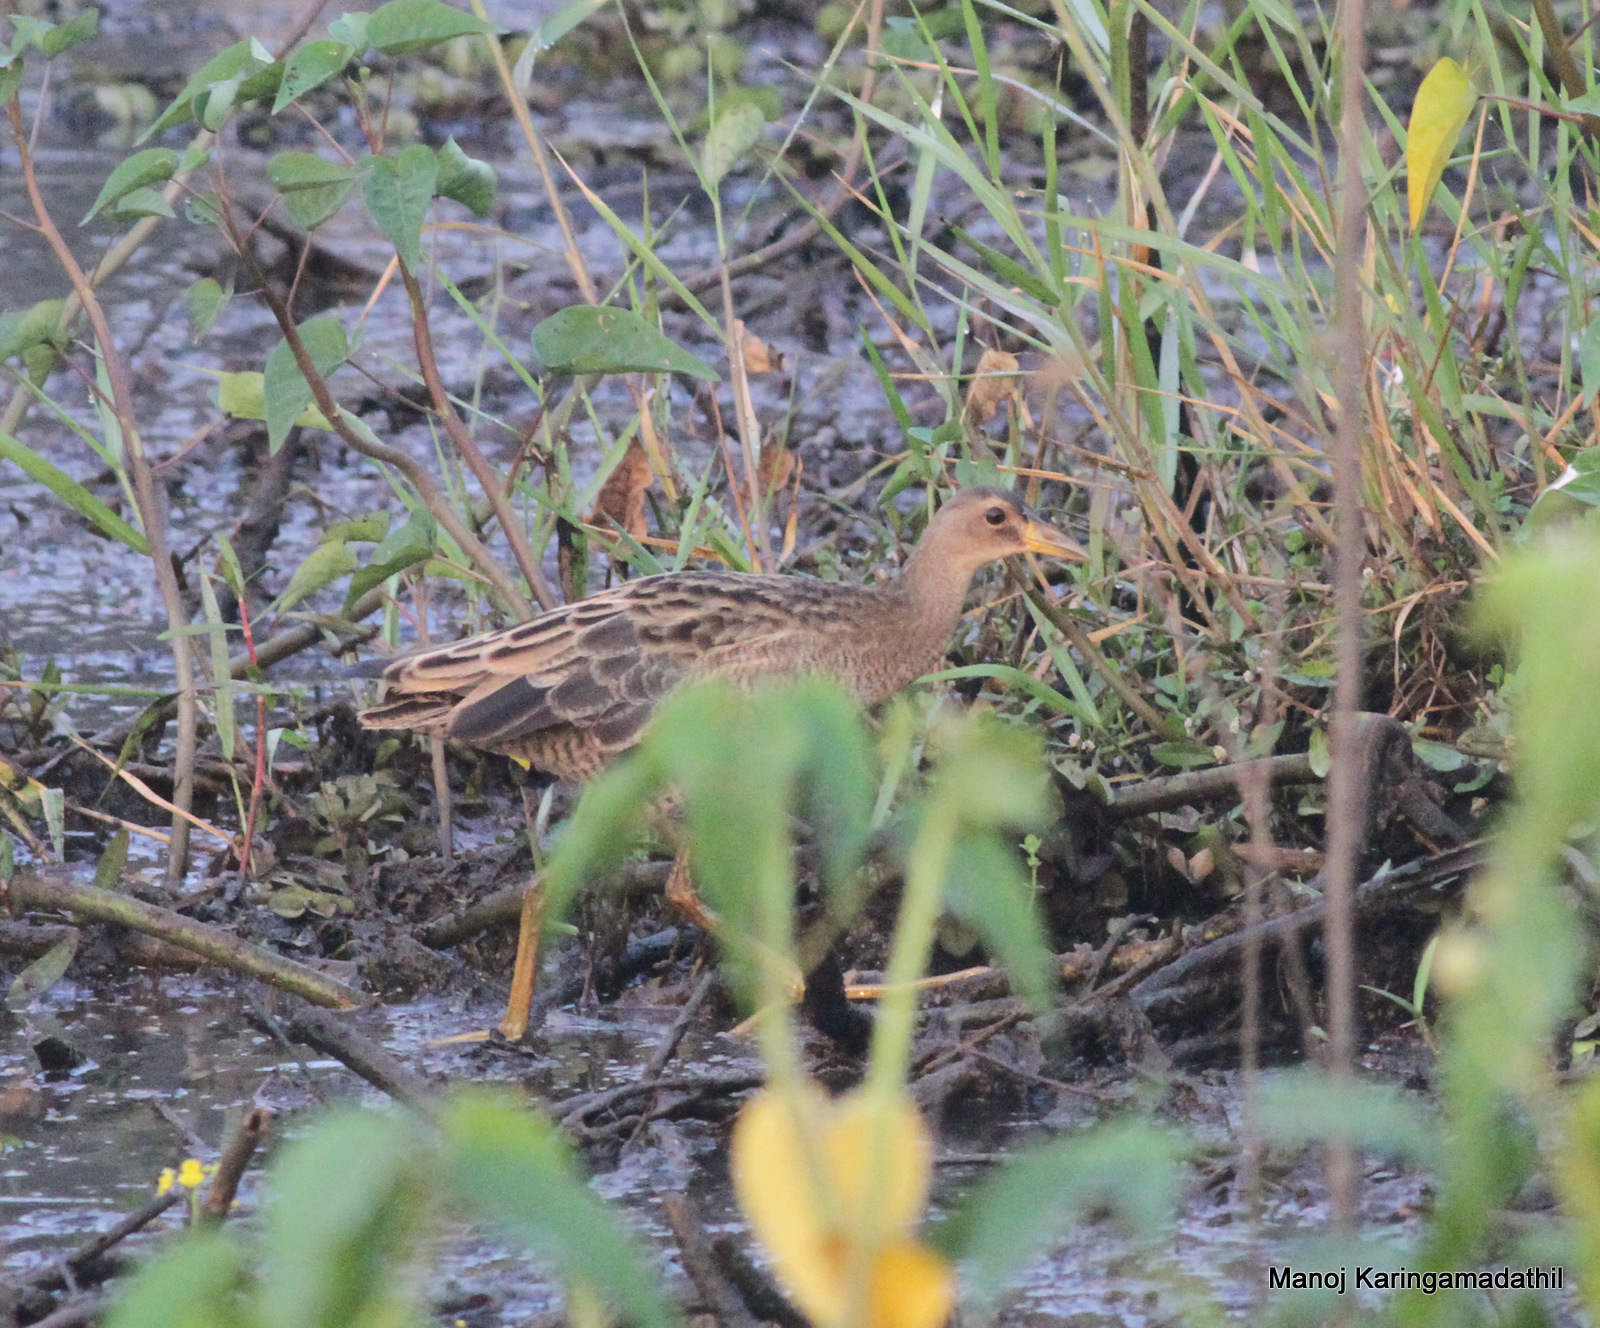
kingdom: Animalia
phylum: Chordata
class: Aves
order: Gruiformes
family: Rallidae
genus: Gallicrex
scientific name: Gallicrex cinerea
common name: Watercock
